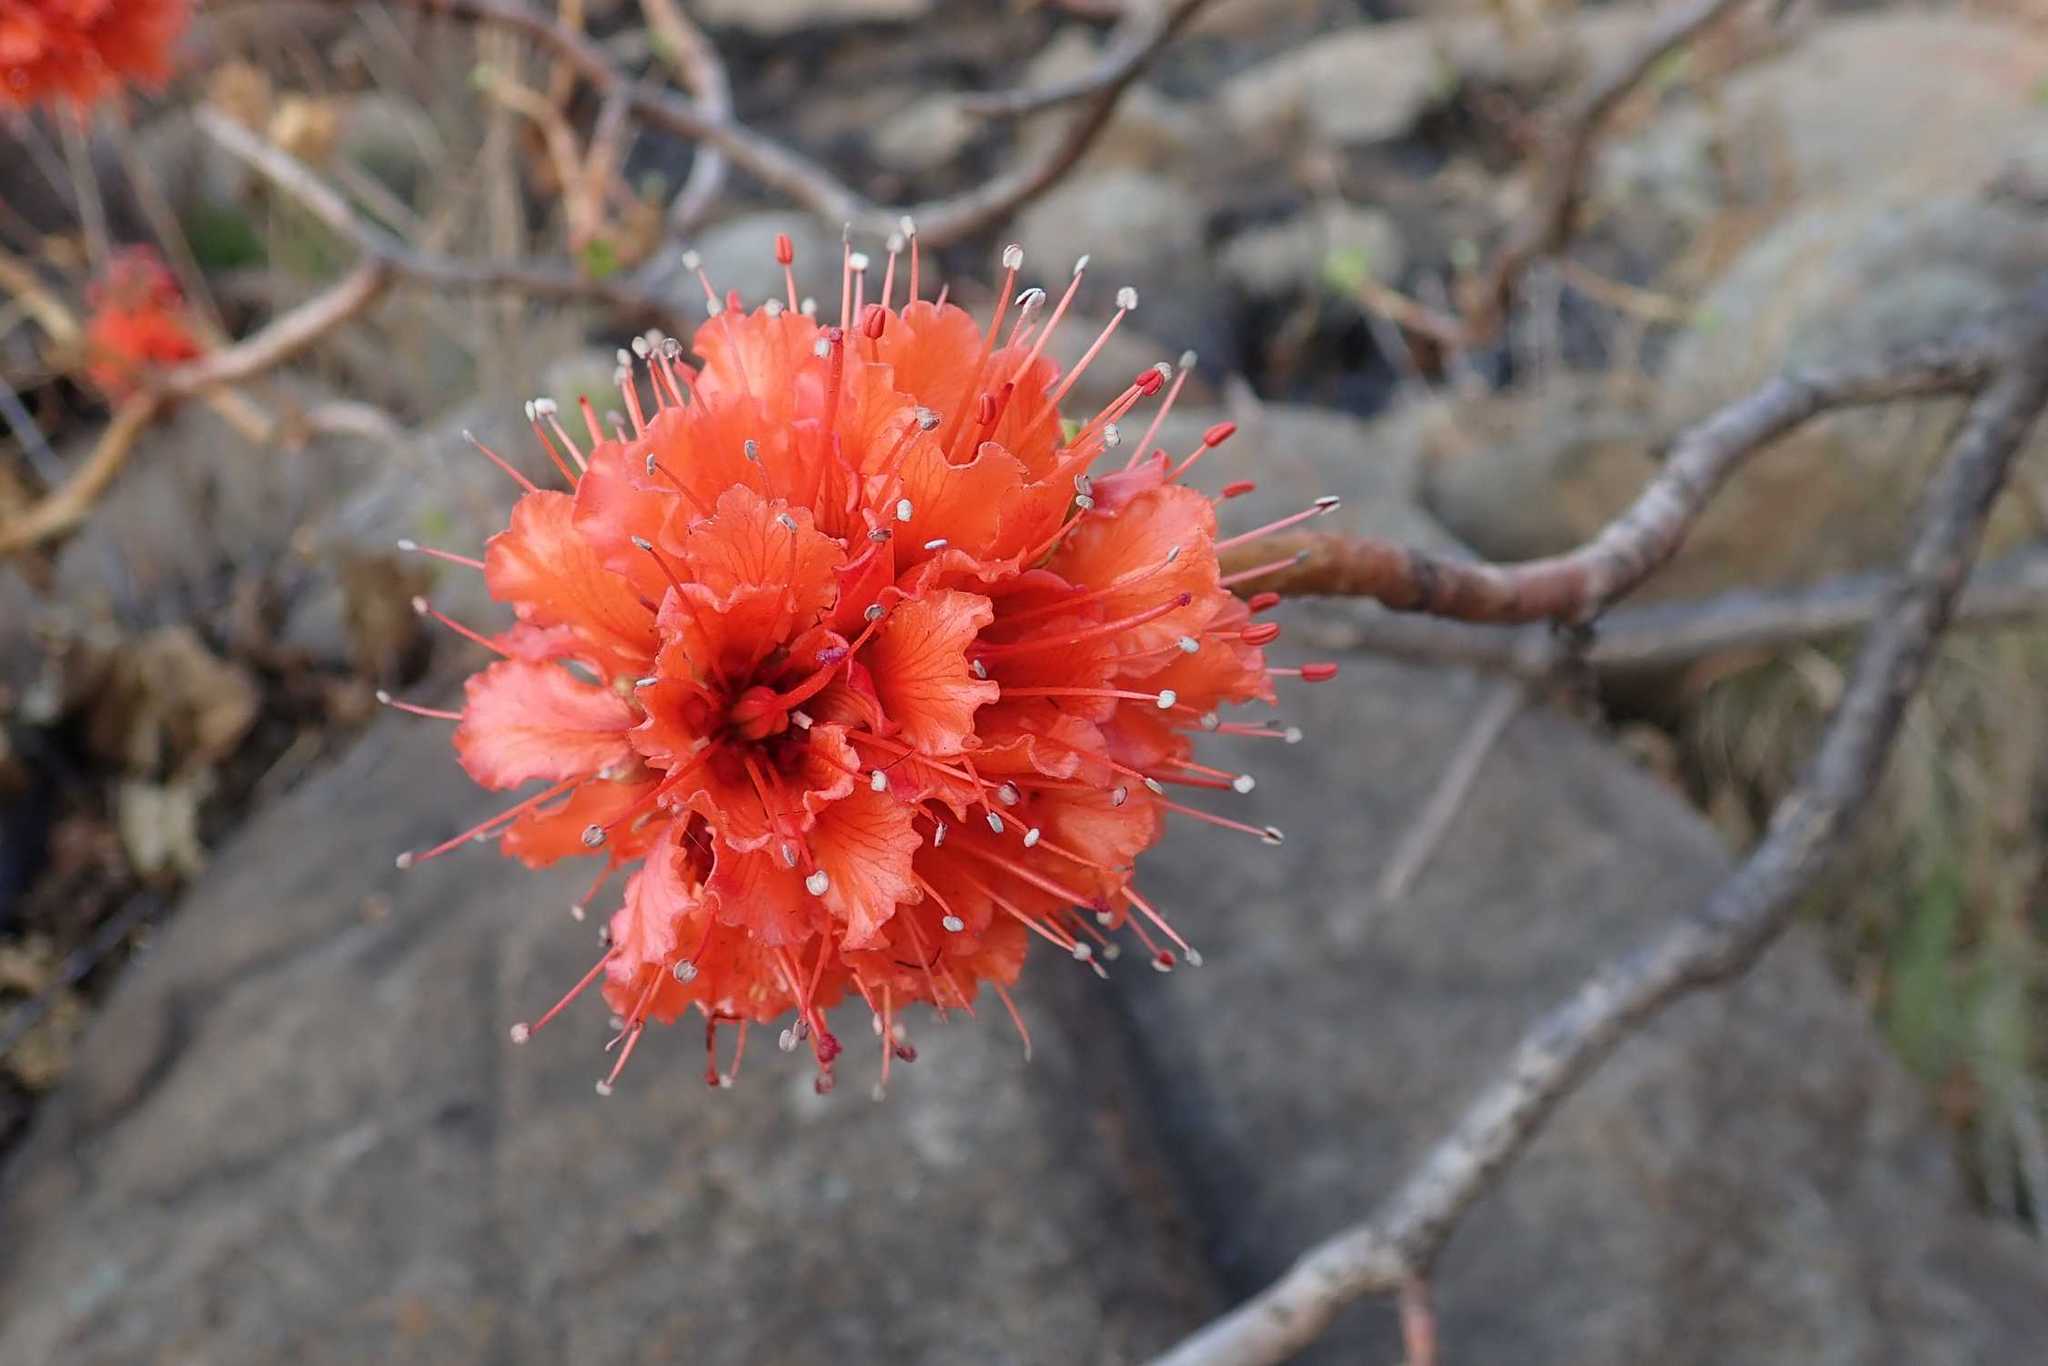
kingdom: Plantae
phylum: Tracheophyta
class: Magnoliopsida
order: Geraniales
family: Francoaceae
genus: Greyia
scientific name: Greyia radlkoferi
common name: Natal bottlebrush
